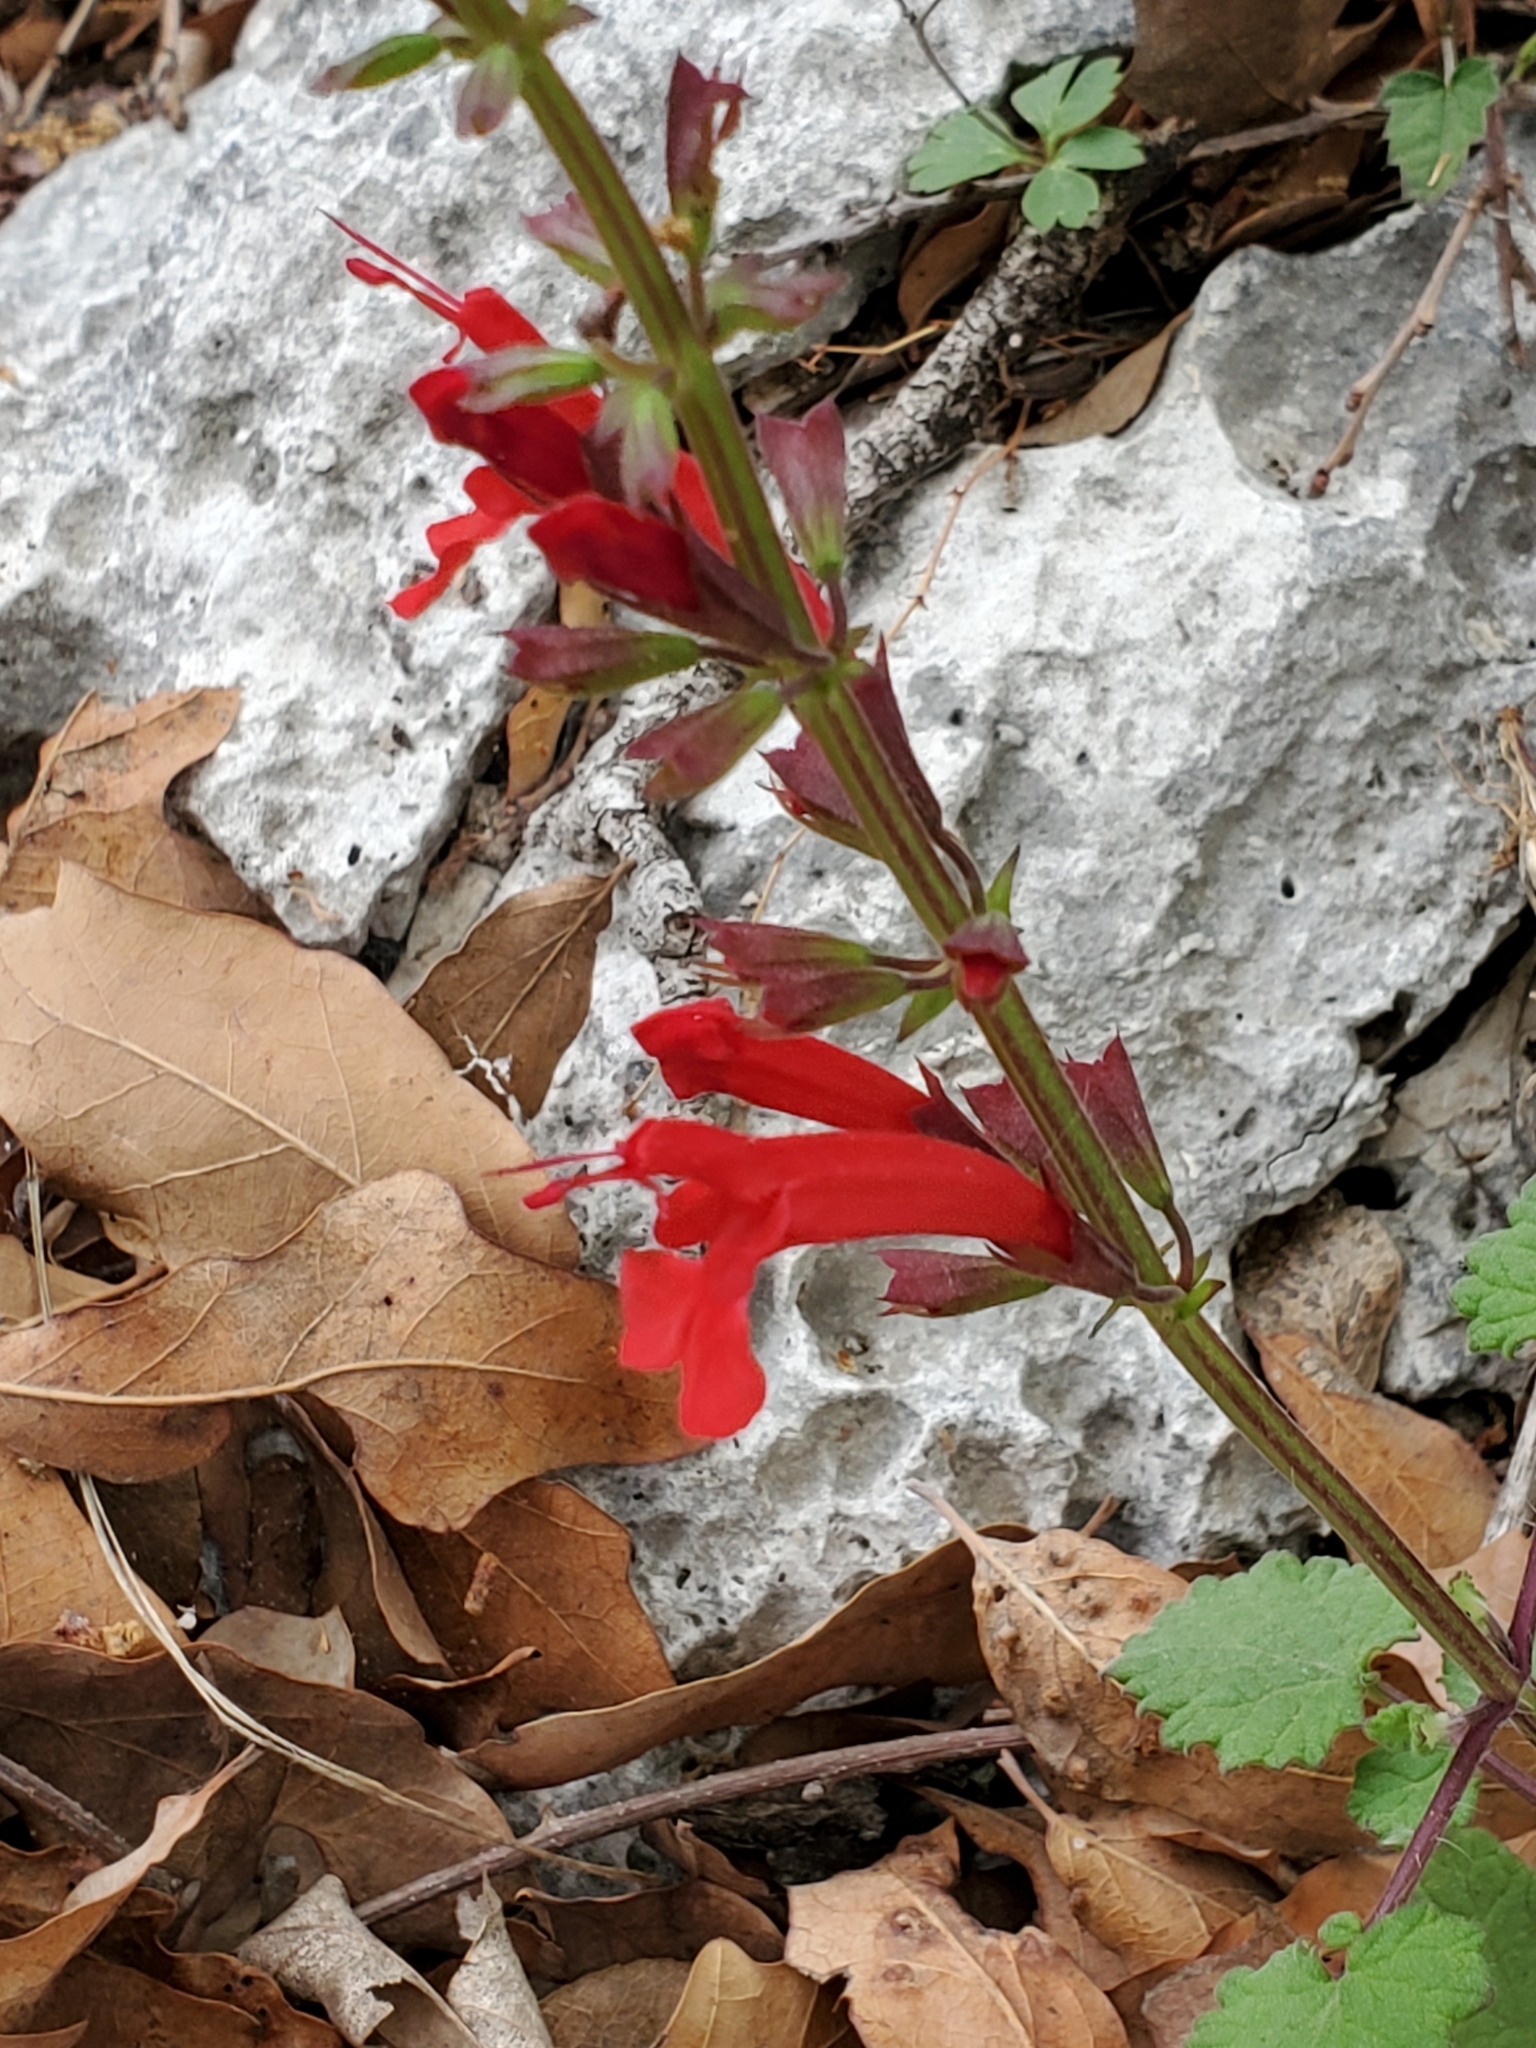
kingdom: Plantae
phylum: Tracheophyta
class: Magnoliopsida
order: Lamiales
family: Lamiaceae
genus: Salvia
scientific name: Salvia roemeriana
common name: Cedar sage
